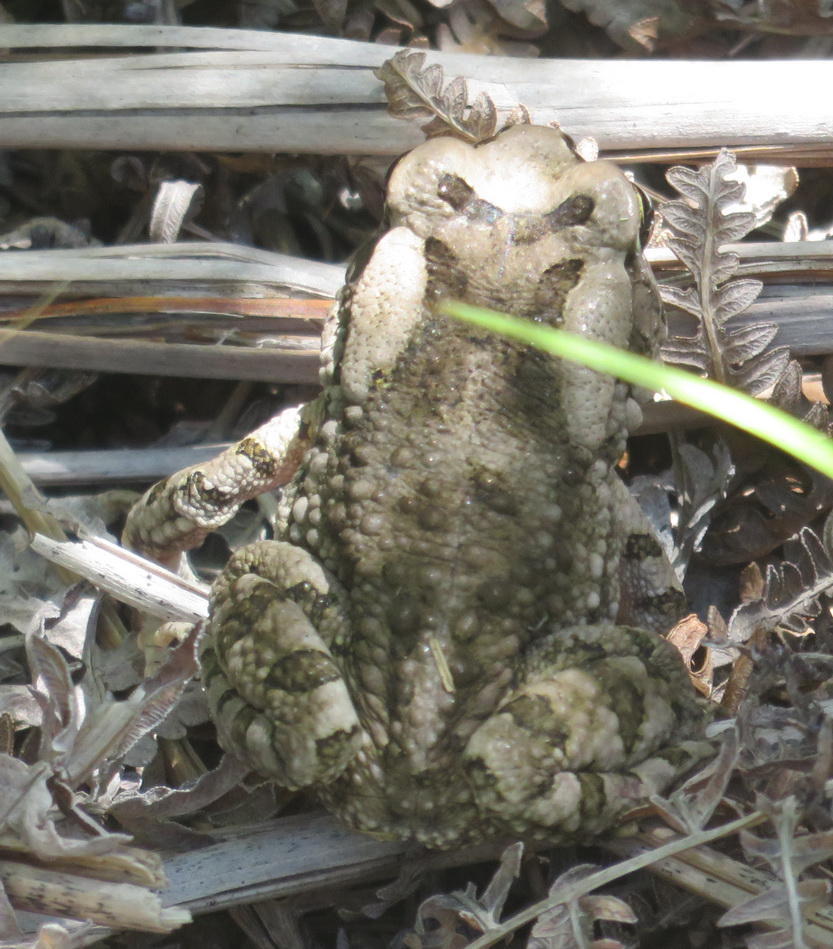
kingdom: Animalia
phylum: Chordata
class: Amphibia
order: Anura
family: Bufonidae
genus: Sclerophrys
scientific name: Sclerophrys capensis
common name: Ranger’s toad
